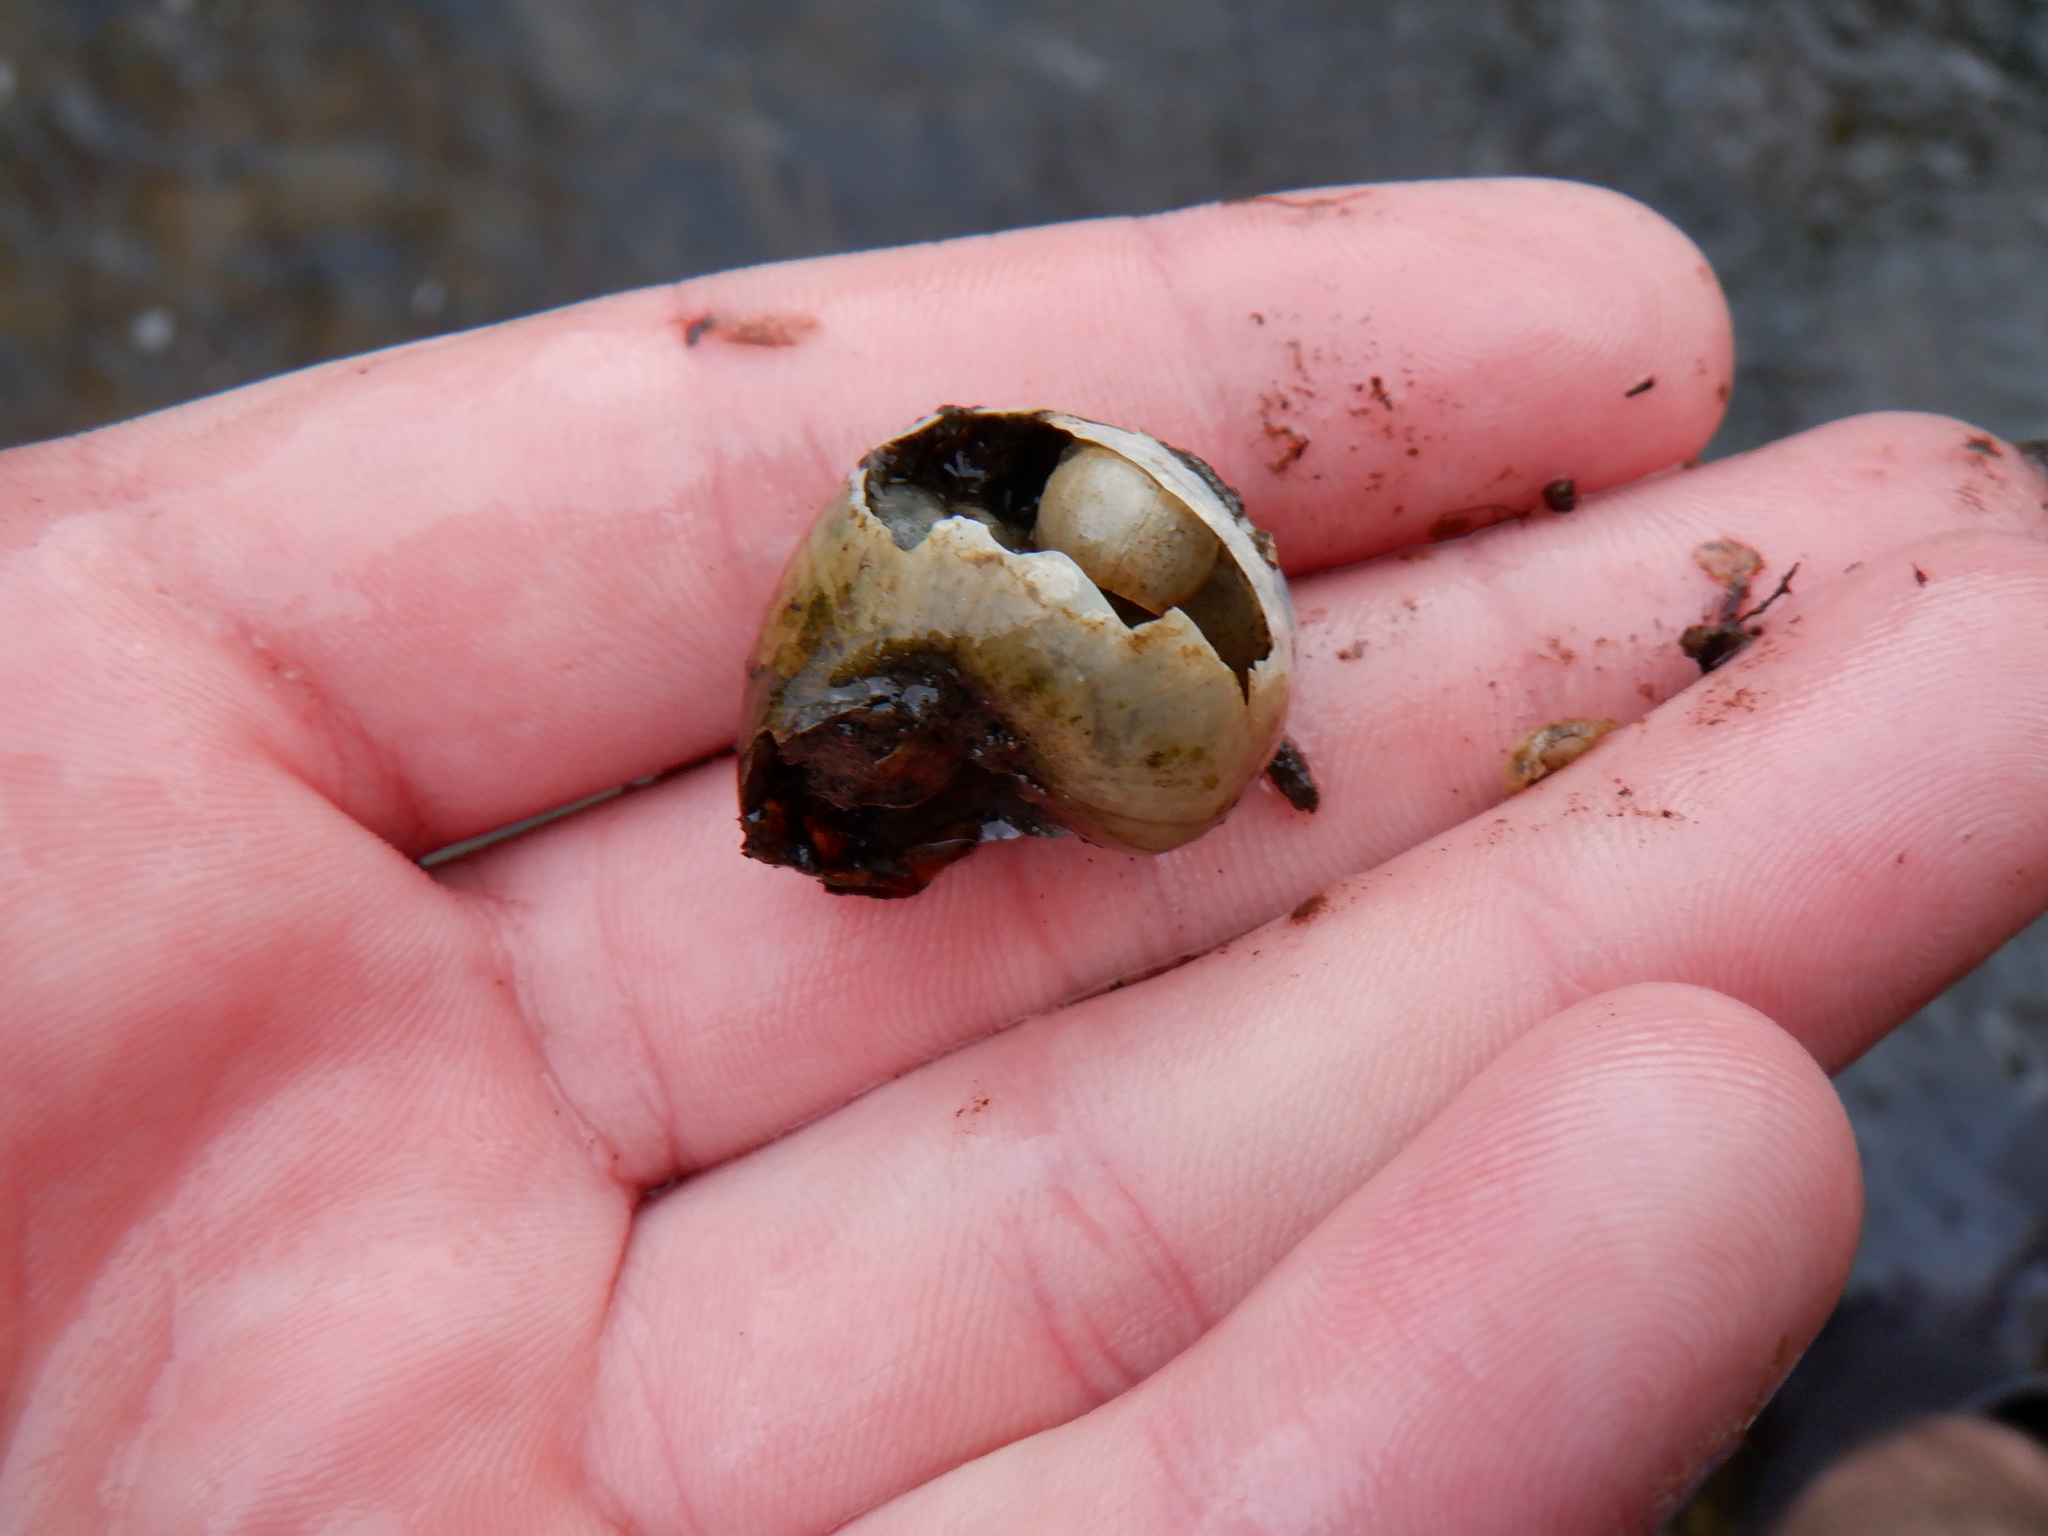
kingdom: Animalia
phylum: Mollusca
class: Gastropoda
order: Architaenioglossa
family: Viviparidae
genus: Cipangopaludina
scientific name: Cipangopaludina chinensis
